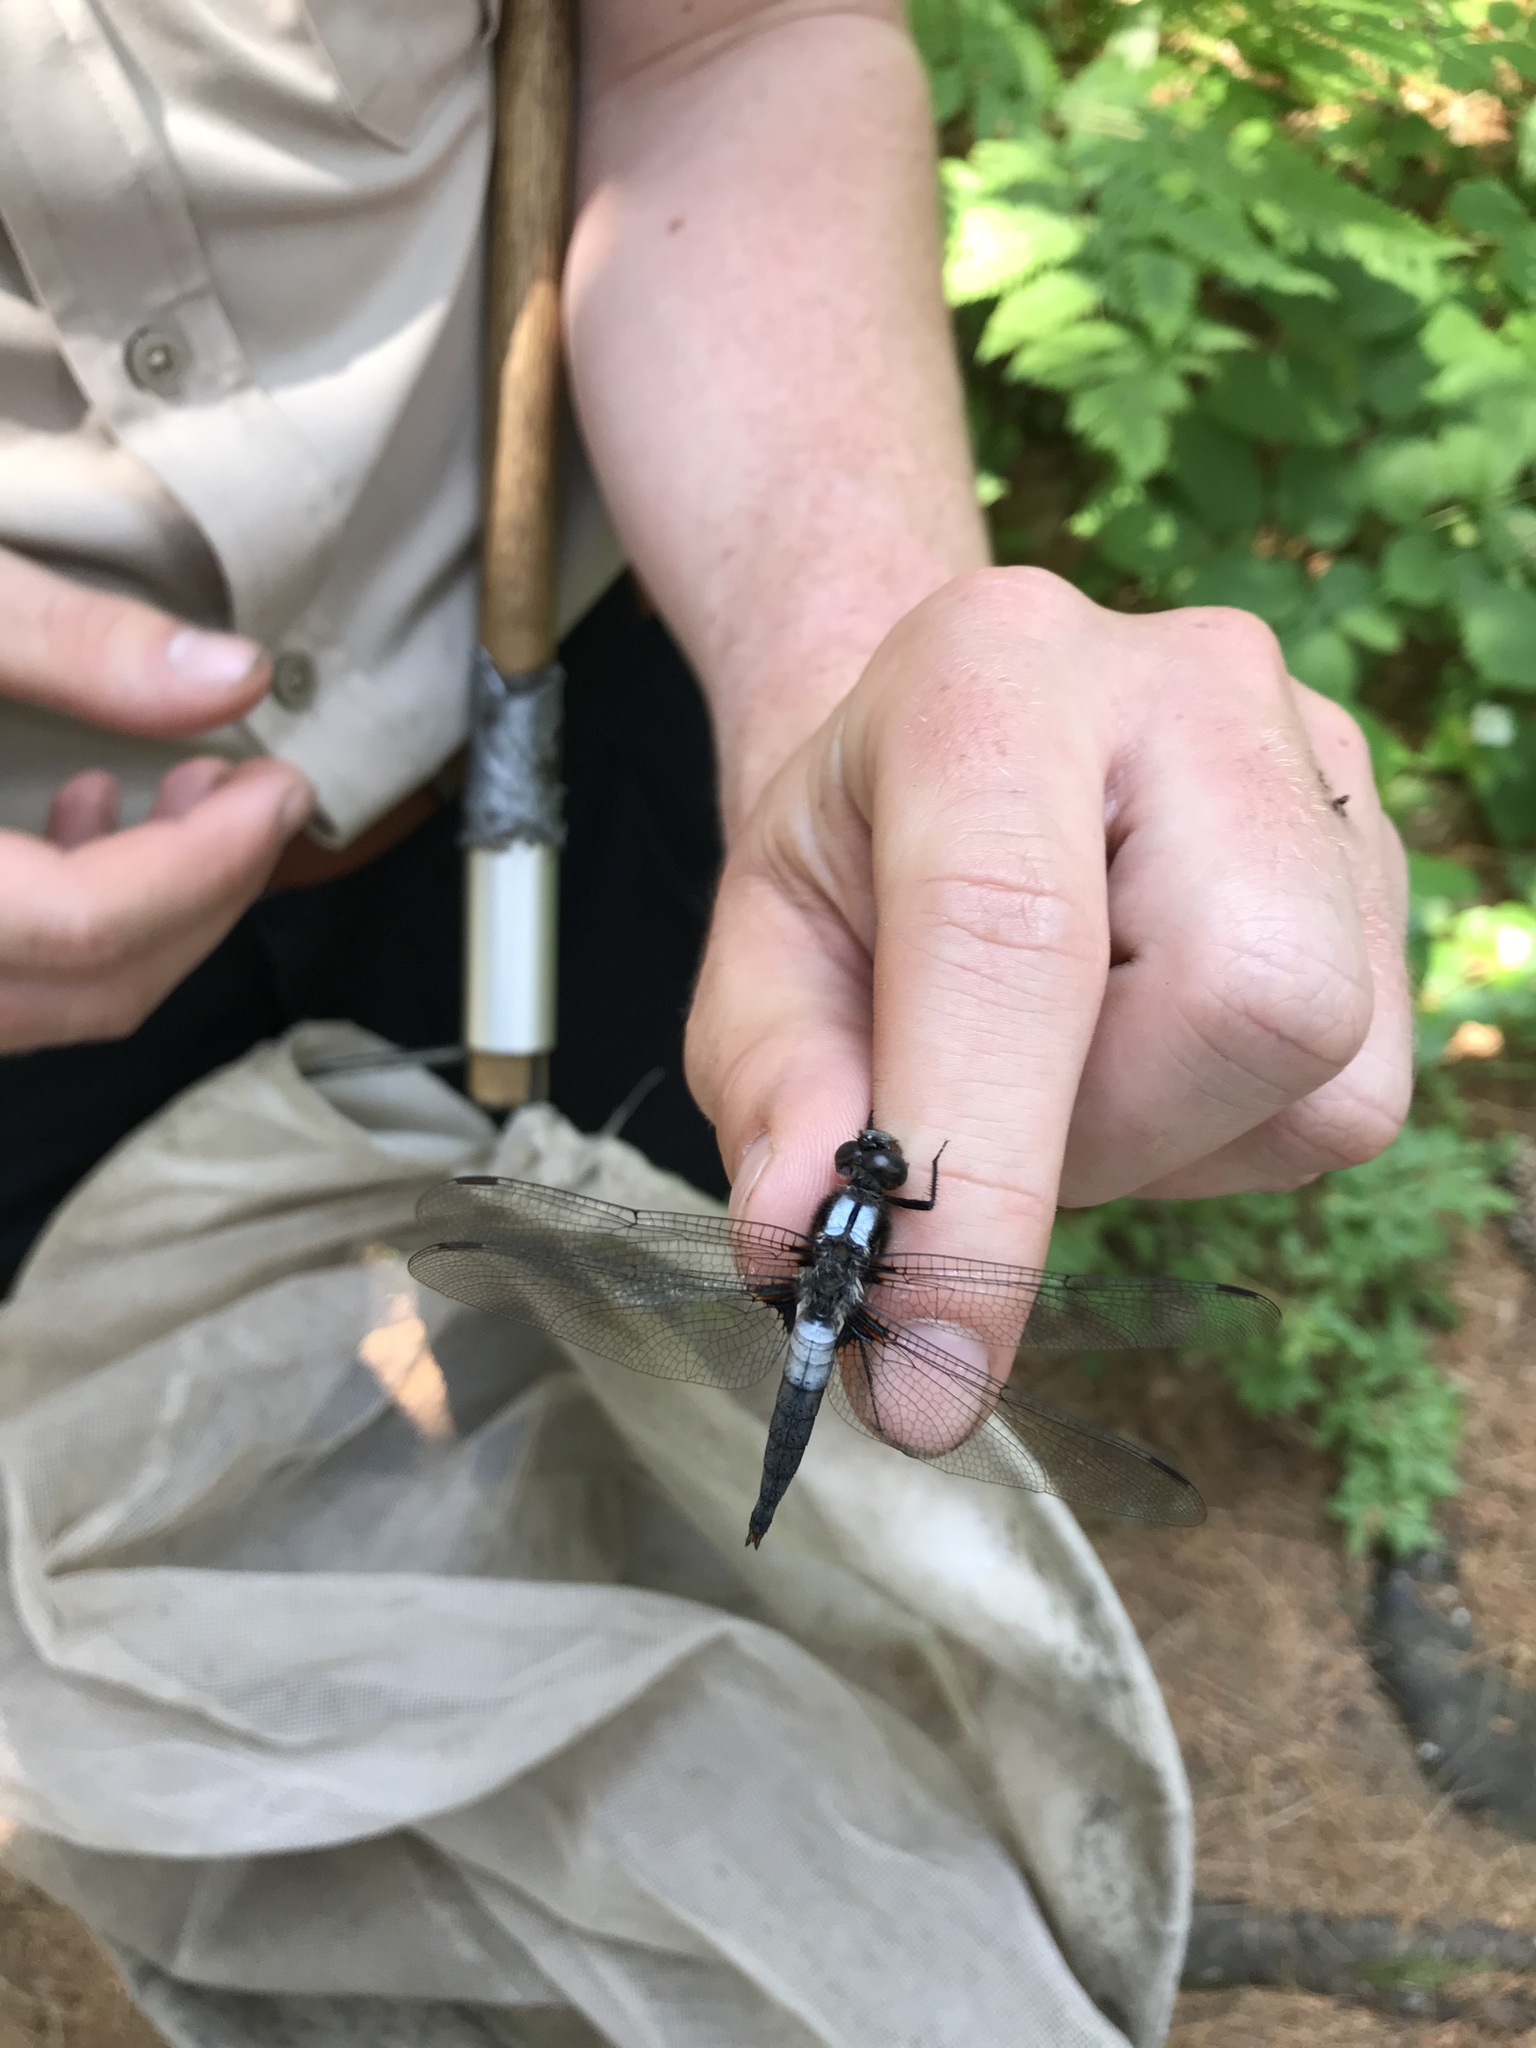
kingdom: Animalia
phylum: Arthropoda
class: Insecta
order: Odonata
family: Libellulidae
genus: Ladona
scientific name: Ladona julia
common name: Chalk-fronted corporal
